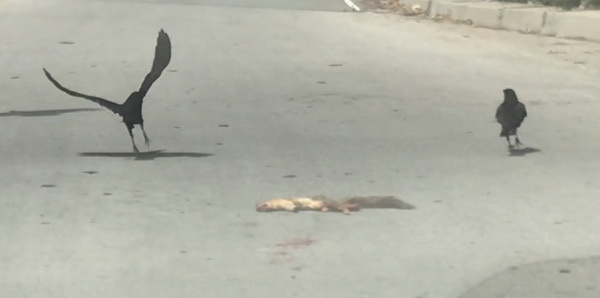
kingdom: Animalia
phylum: Chordata
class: Mammalia
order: Rodentia
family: Sciuridae
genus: Sciurus
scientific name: Sciurus niger
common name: Fox squirrel
